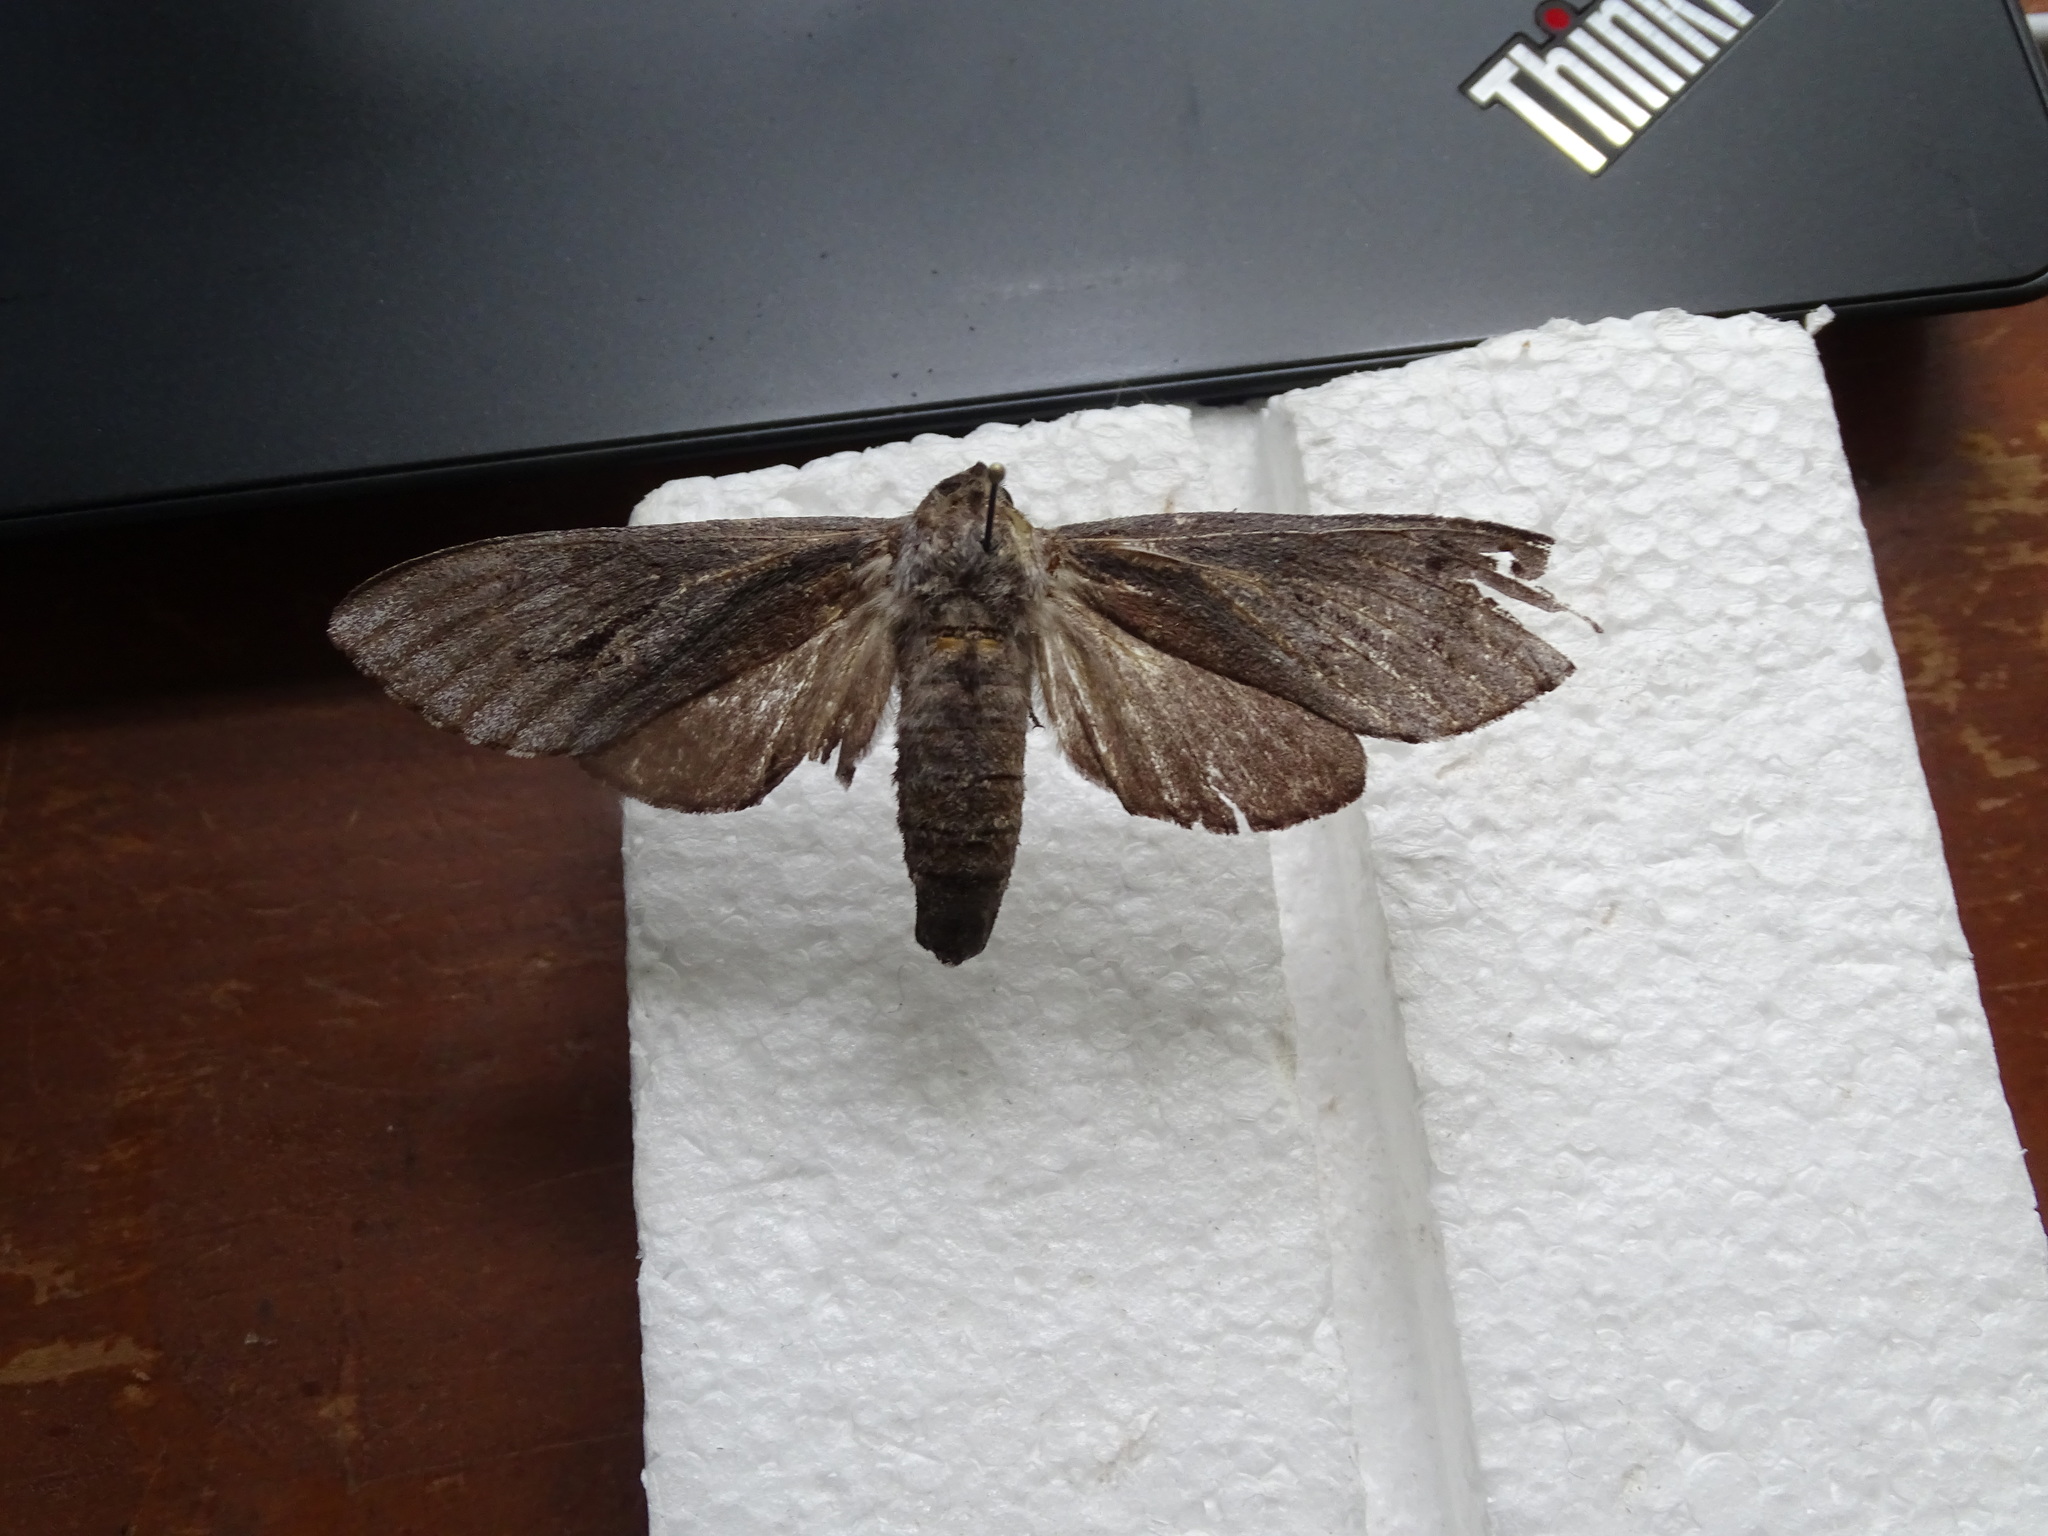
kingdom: Animalia
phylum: Arthropoda
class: Insecta
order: Lepidoptera
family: Sphingidae
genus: Lapara
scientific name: Lapara coniferarum
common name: Southern pine sphinx
